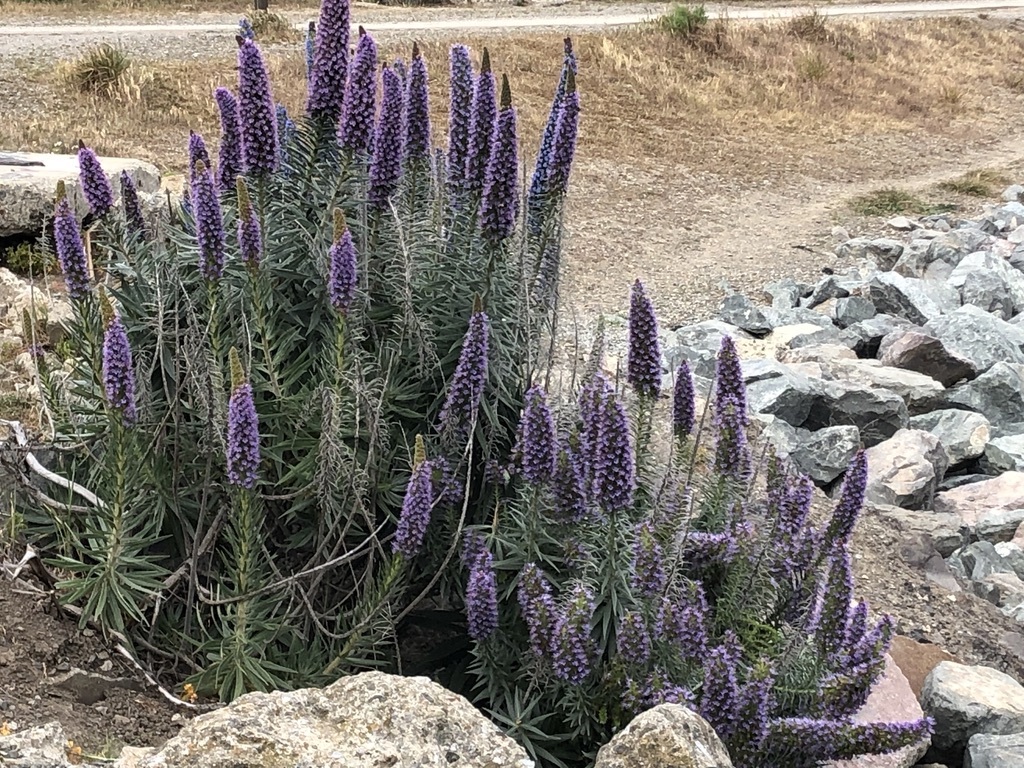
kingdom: Plantae
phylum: Tracheophyta
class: Magnoliopsida
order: Boraginales
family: Boraginaceae
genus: Echium
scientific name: Echium candicans
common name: Pride of madeira
